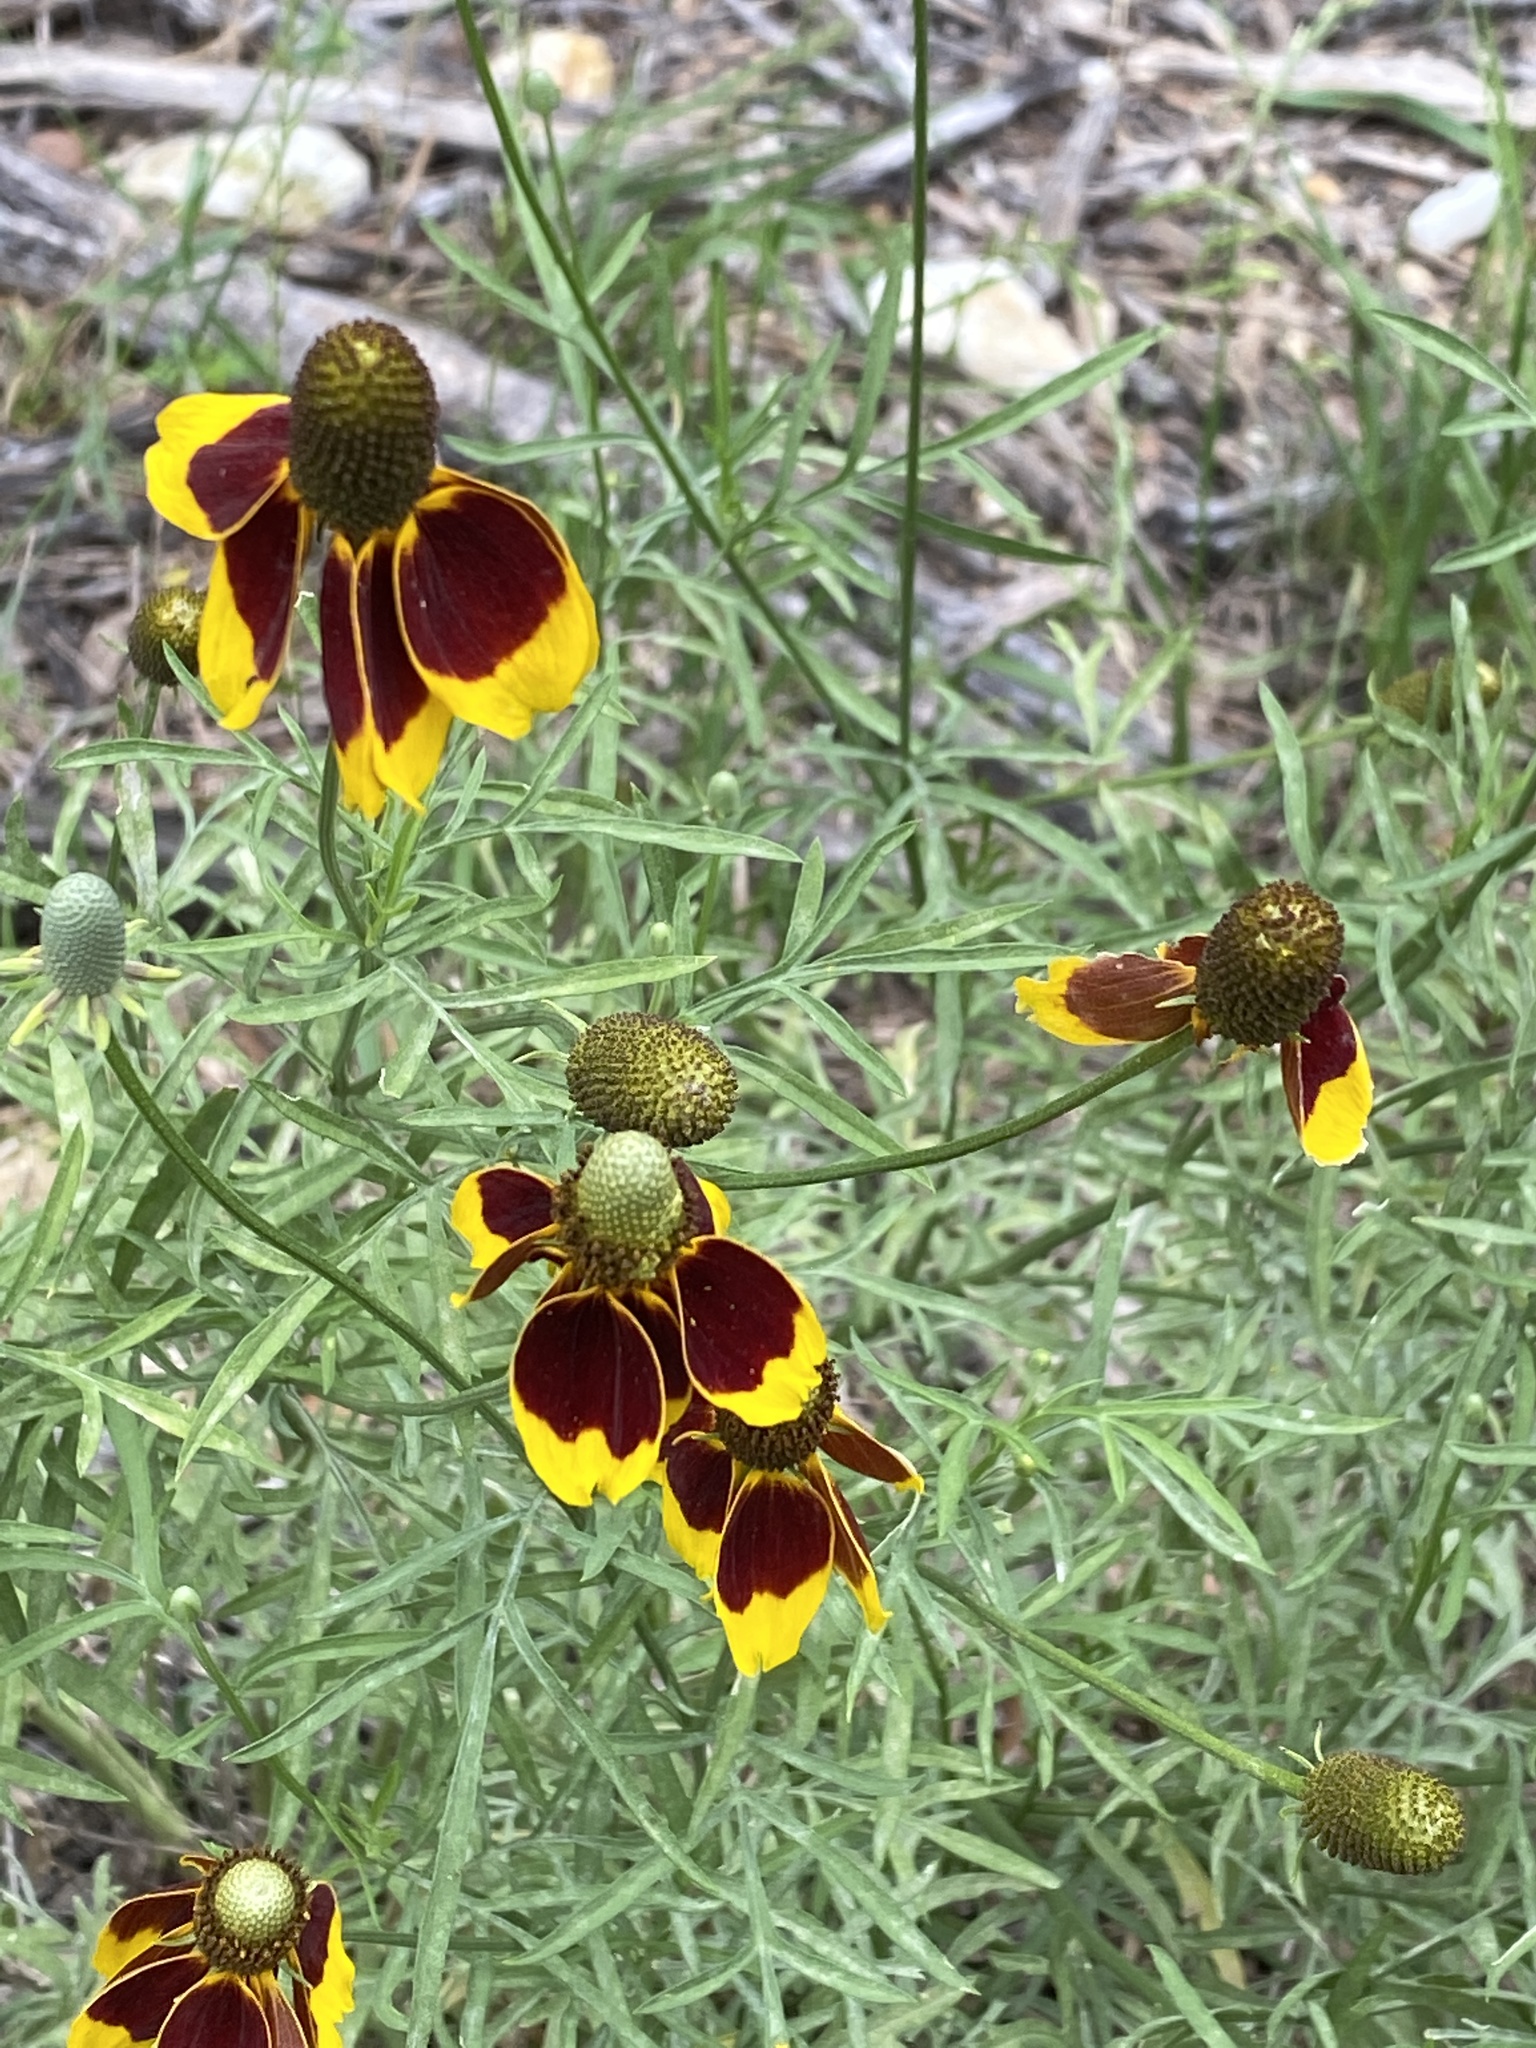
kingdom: Plantae
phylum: Tracheophyta
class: Magnoliopsida
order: Asterales
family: Asteraceae
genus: Ratibida
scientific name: Ratibida columnifera
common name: Prairie coneflower
